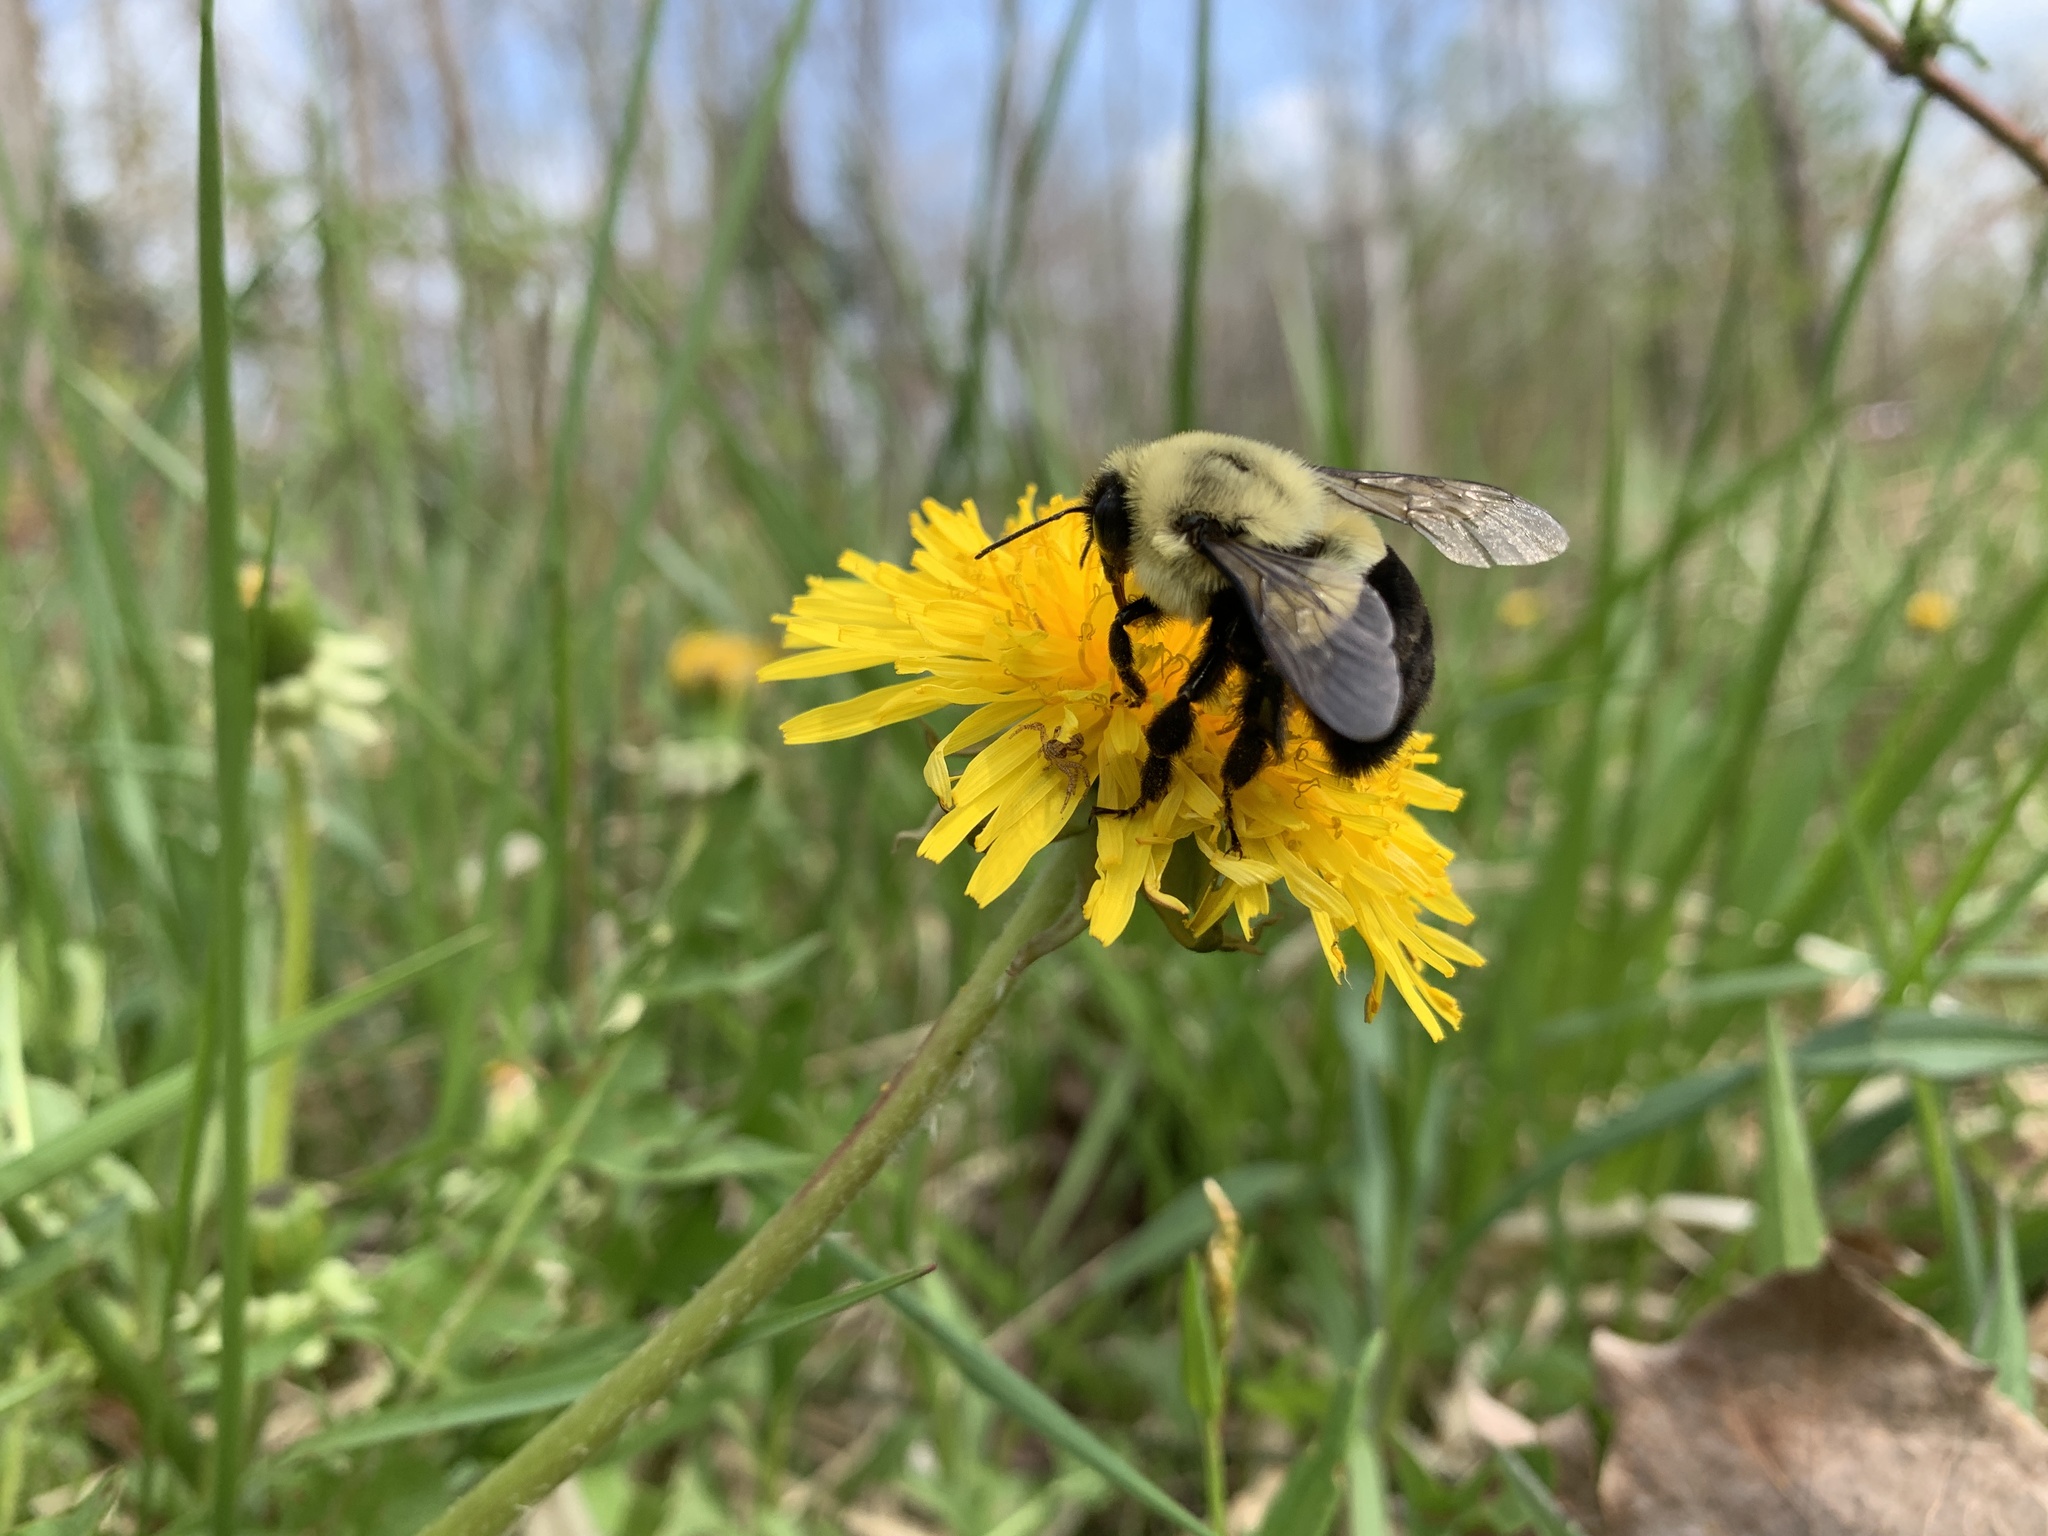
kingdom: Animalia
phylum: Arthropoda
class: Insecta
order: Hymenoptera
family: Apidae
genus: Bombus
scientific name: Bombus impatiens
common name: Common eastern bumble bee
